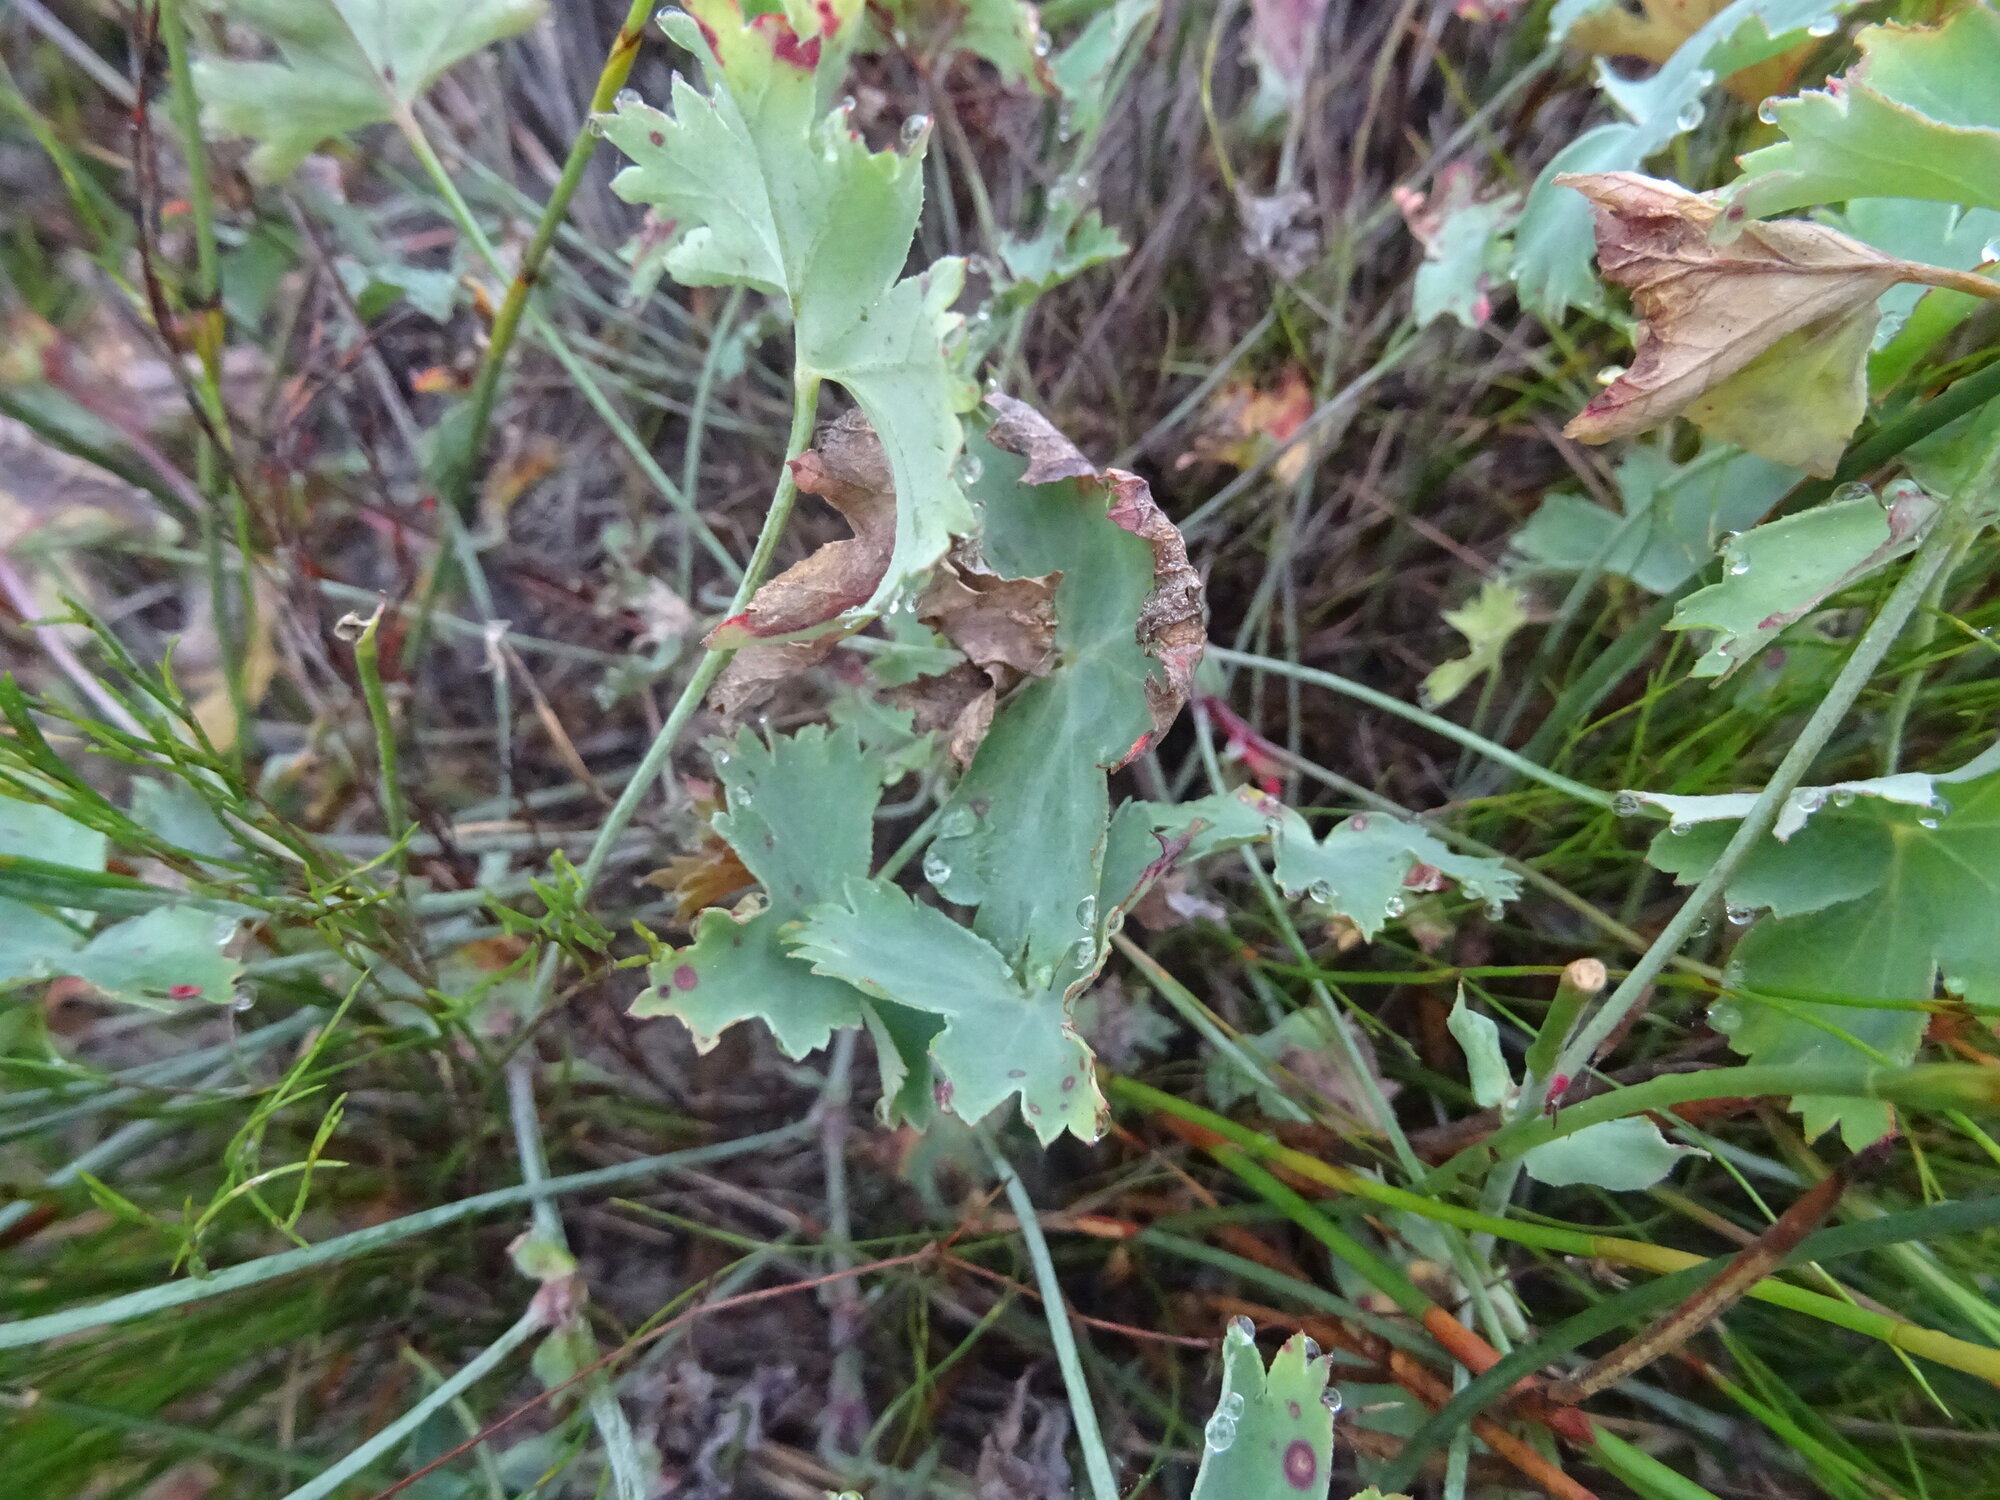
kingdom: Plantae
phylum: Tracheophyta
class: Magnoliopsida
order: Geraniales
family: Geraniaceae
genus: Pelargonium
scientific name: Pelargonium patulum
